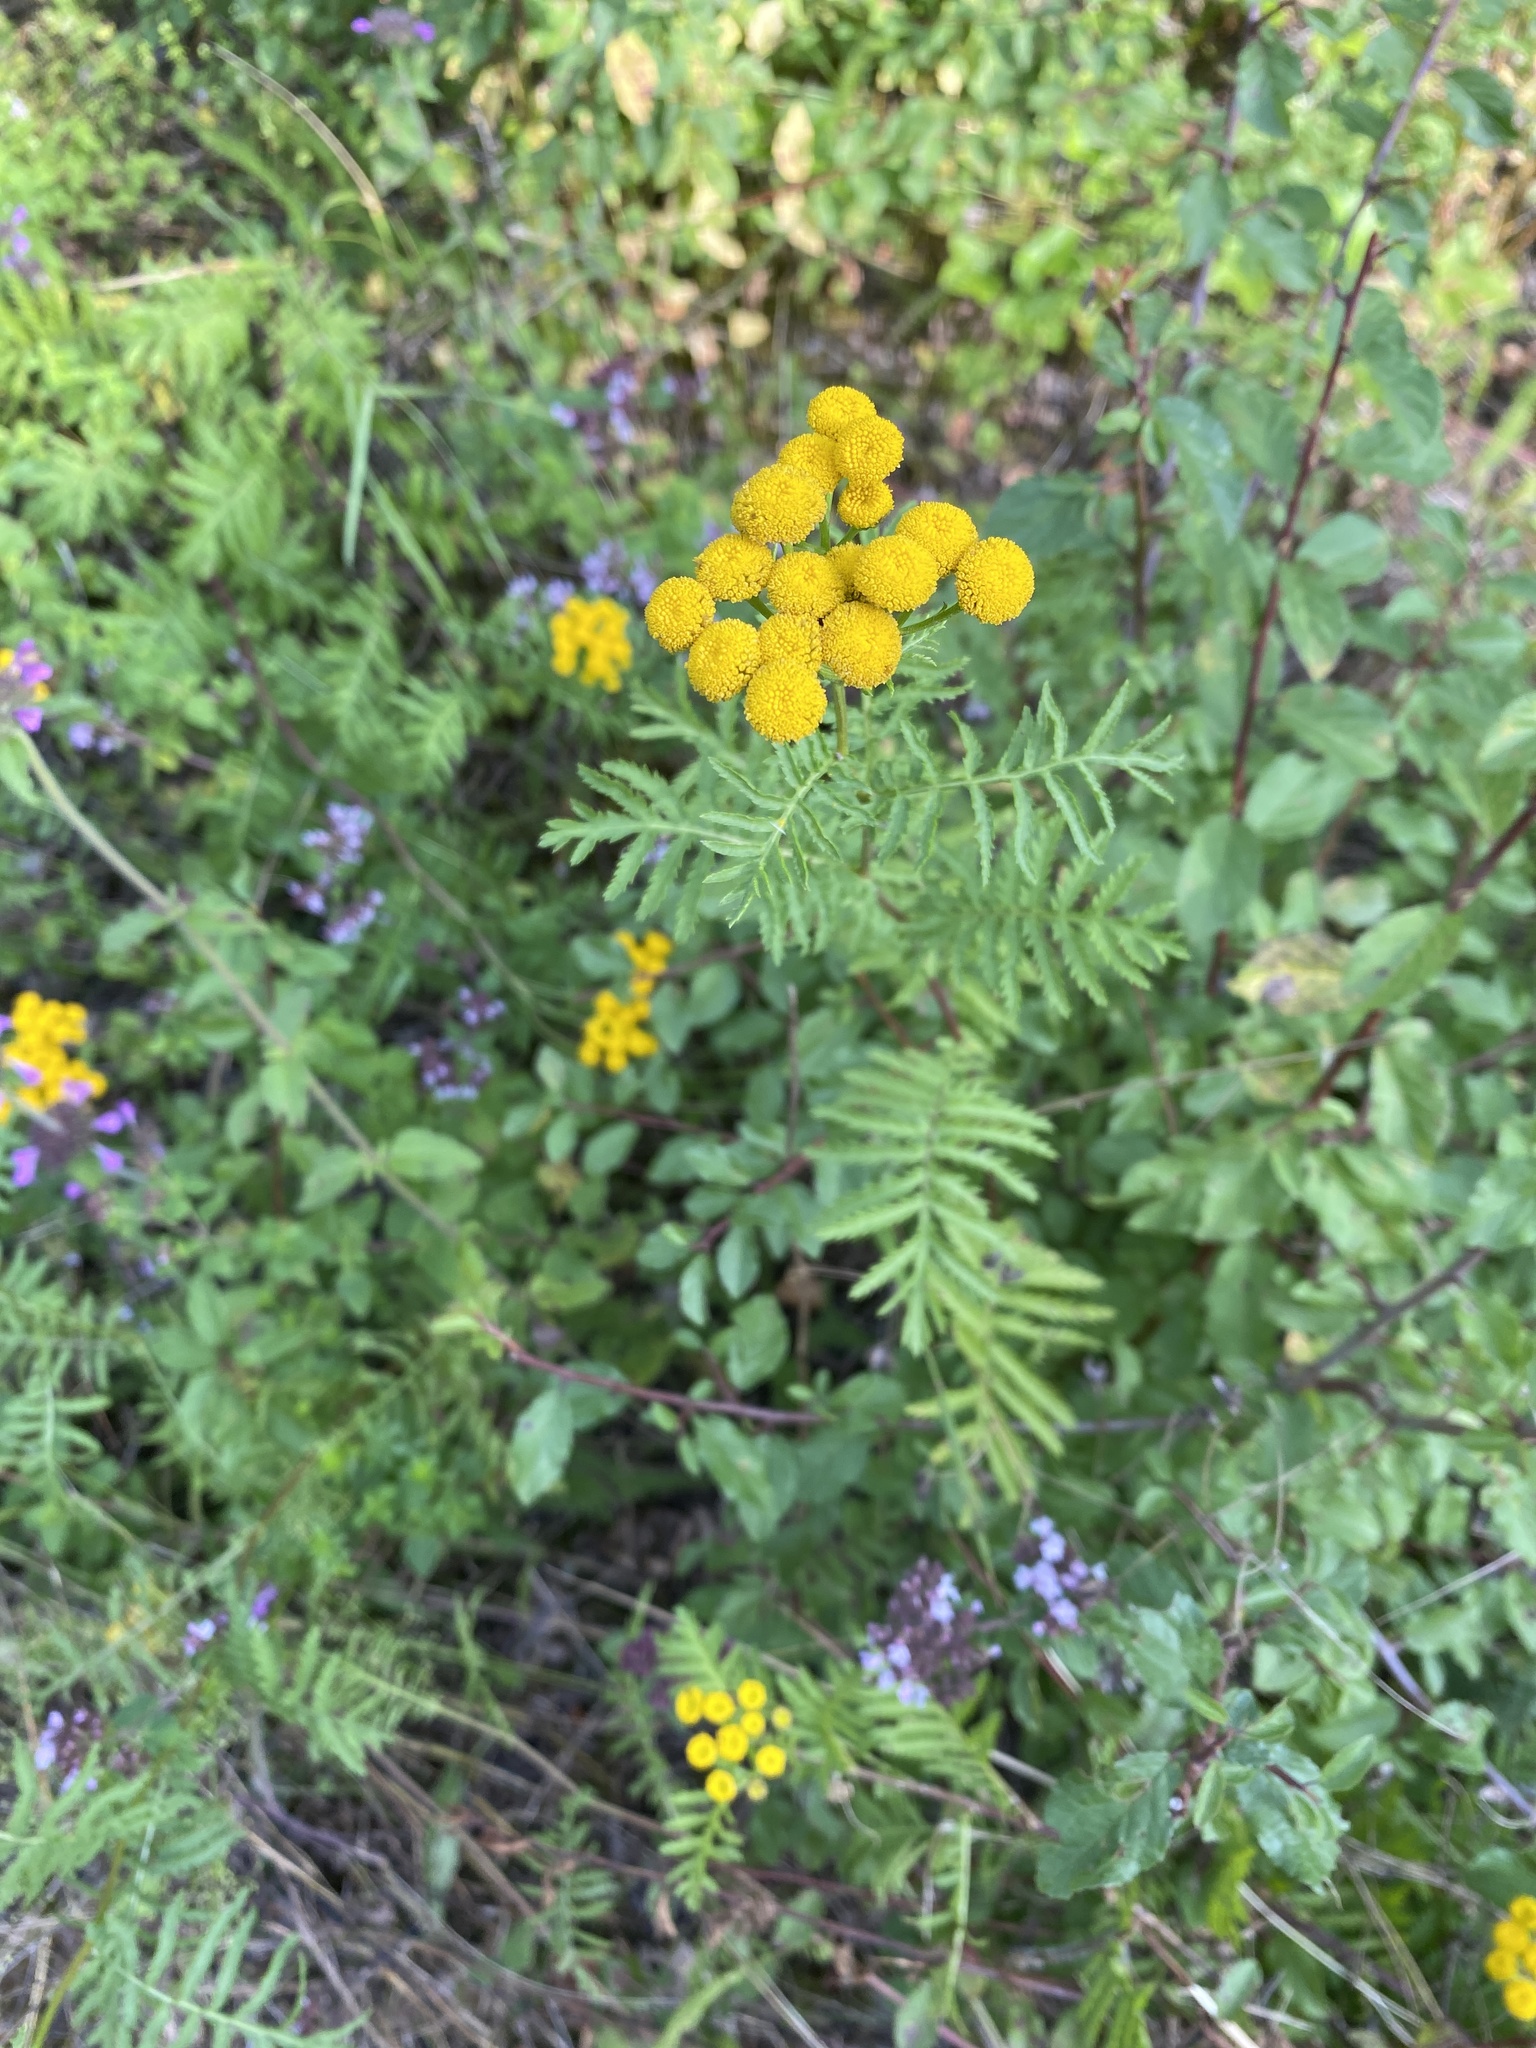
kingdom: Plantae
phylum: Tracheophyta
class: Magnoliopsida
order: Asterales
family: Asteraceae
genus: Tanacetum
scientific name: Tanacetum vulgare
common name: Common tansy
